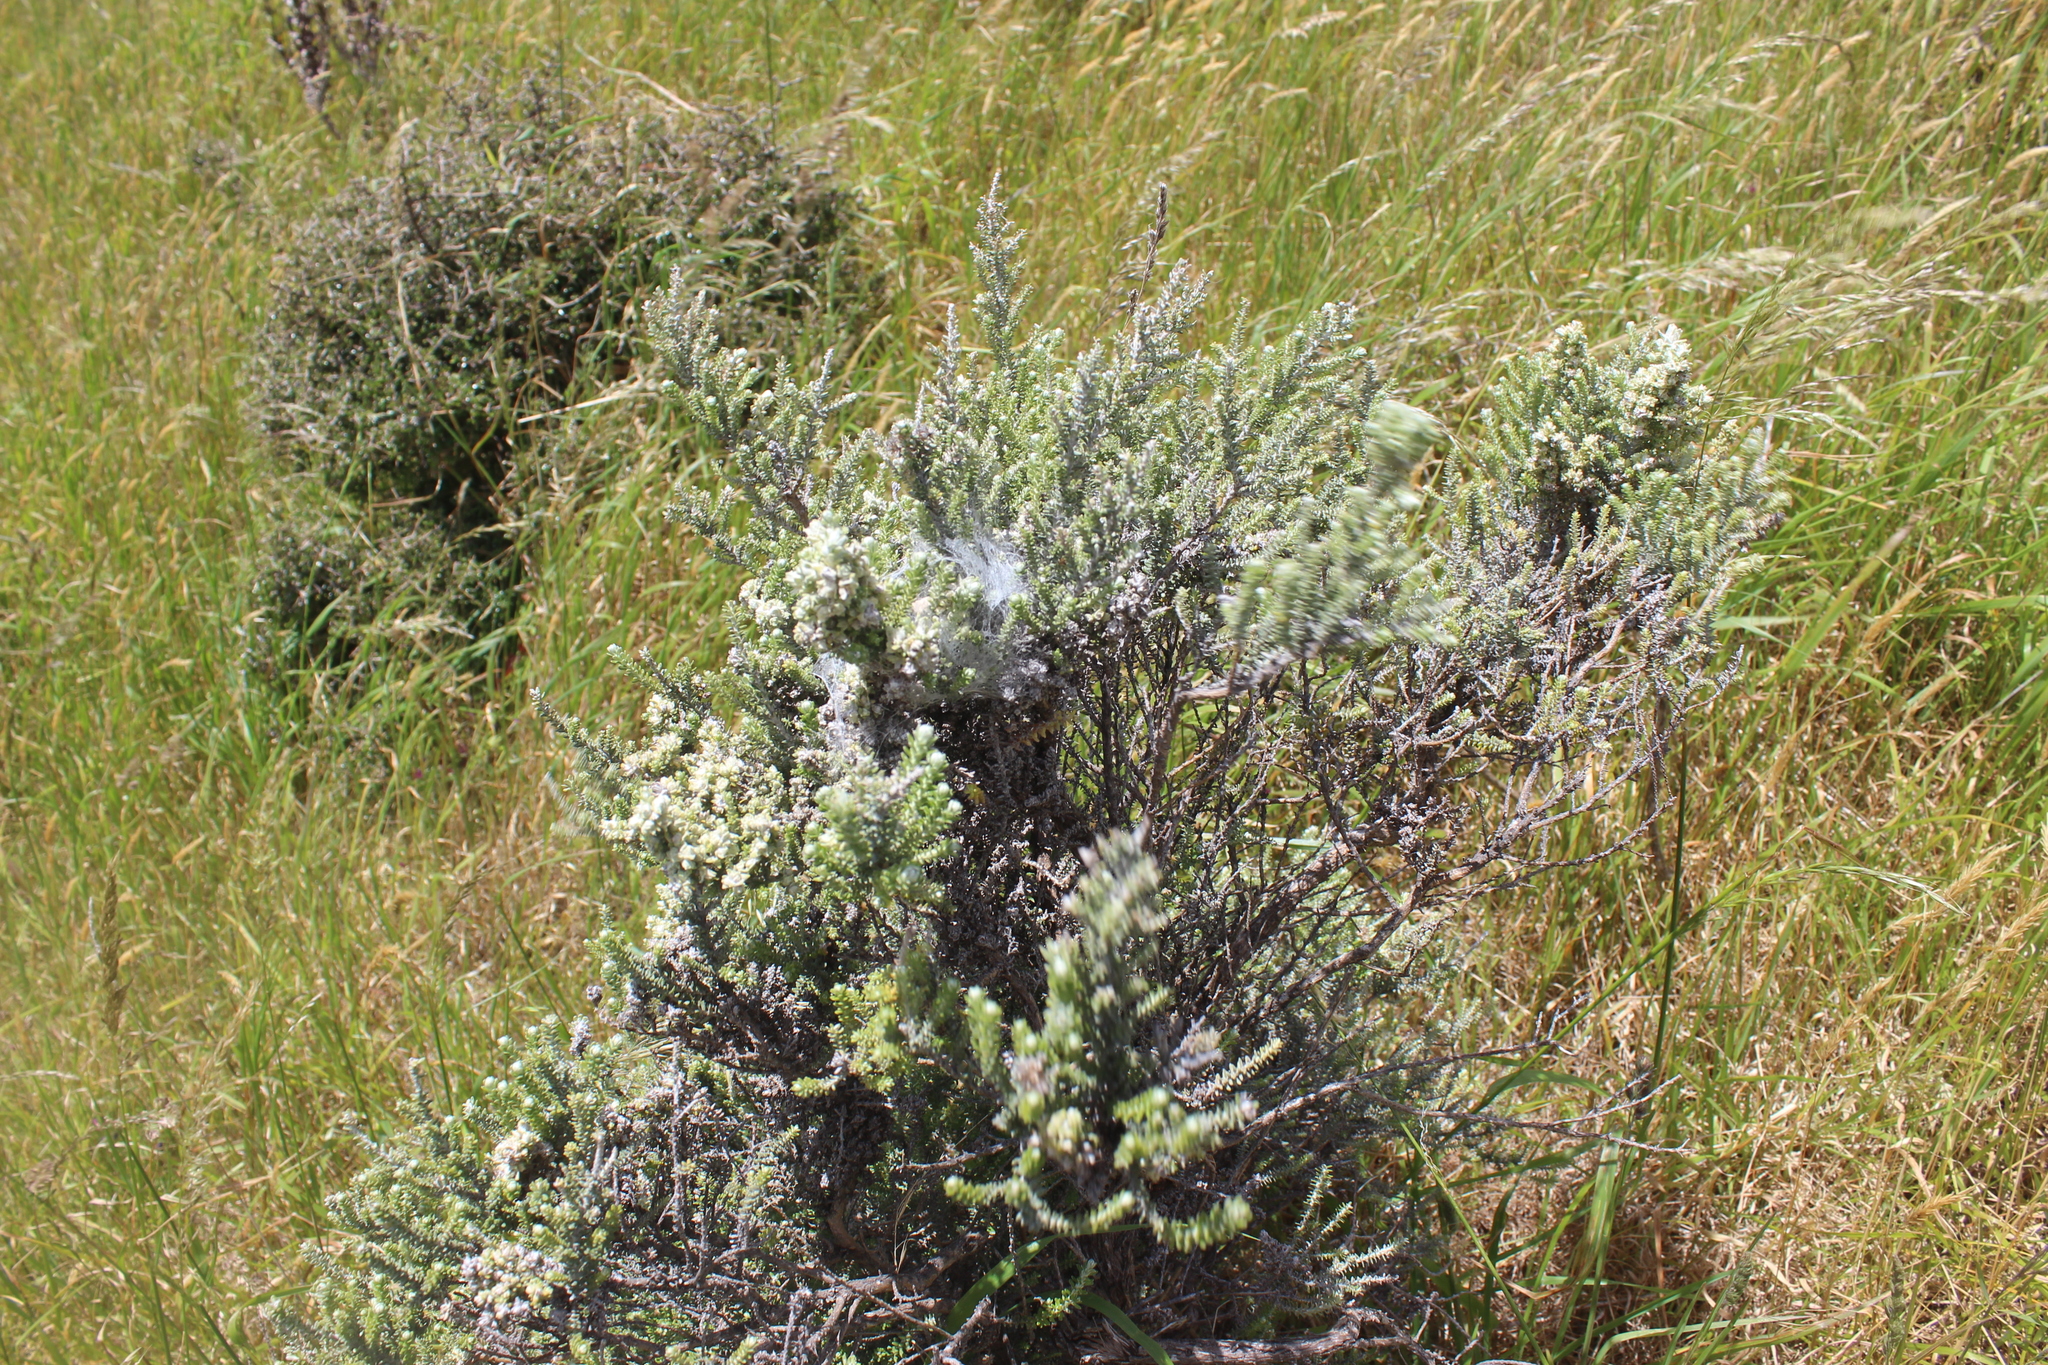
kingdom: Plantae
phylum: Tracheophyta
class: Magnoliopsida
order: Asterales
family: Asteraceae
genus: Ozothamnus
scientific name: Ozothamnus leptophyllus
